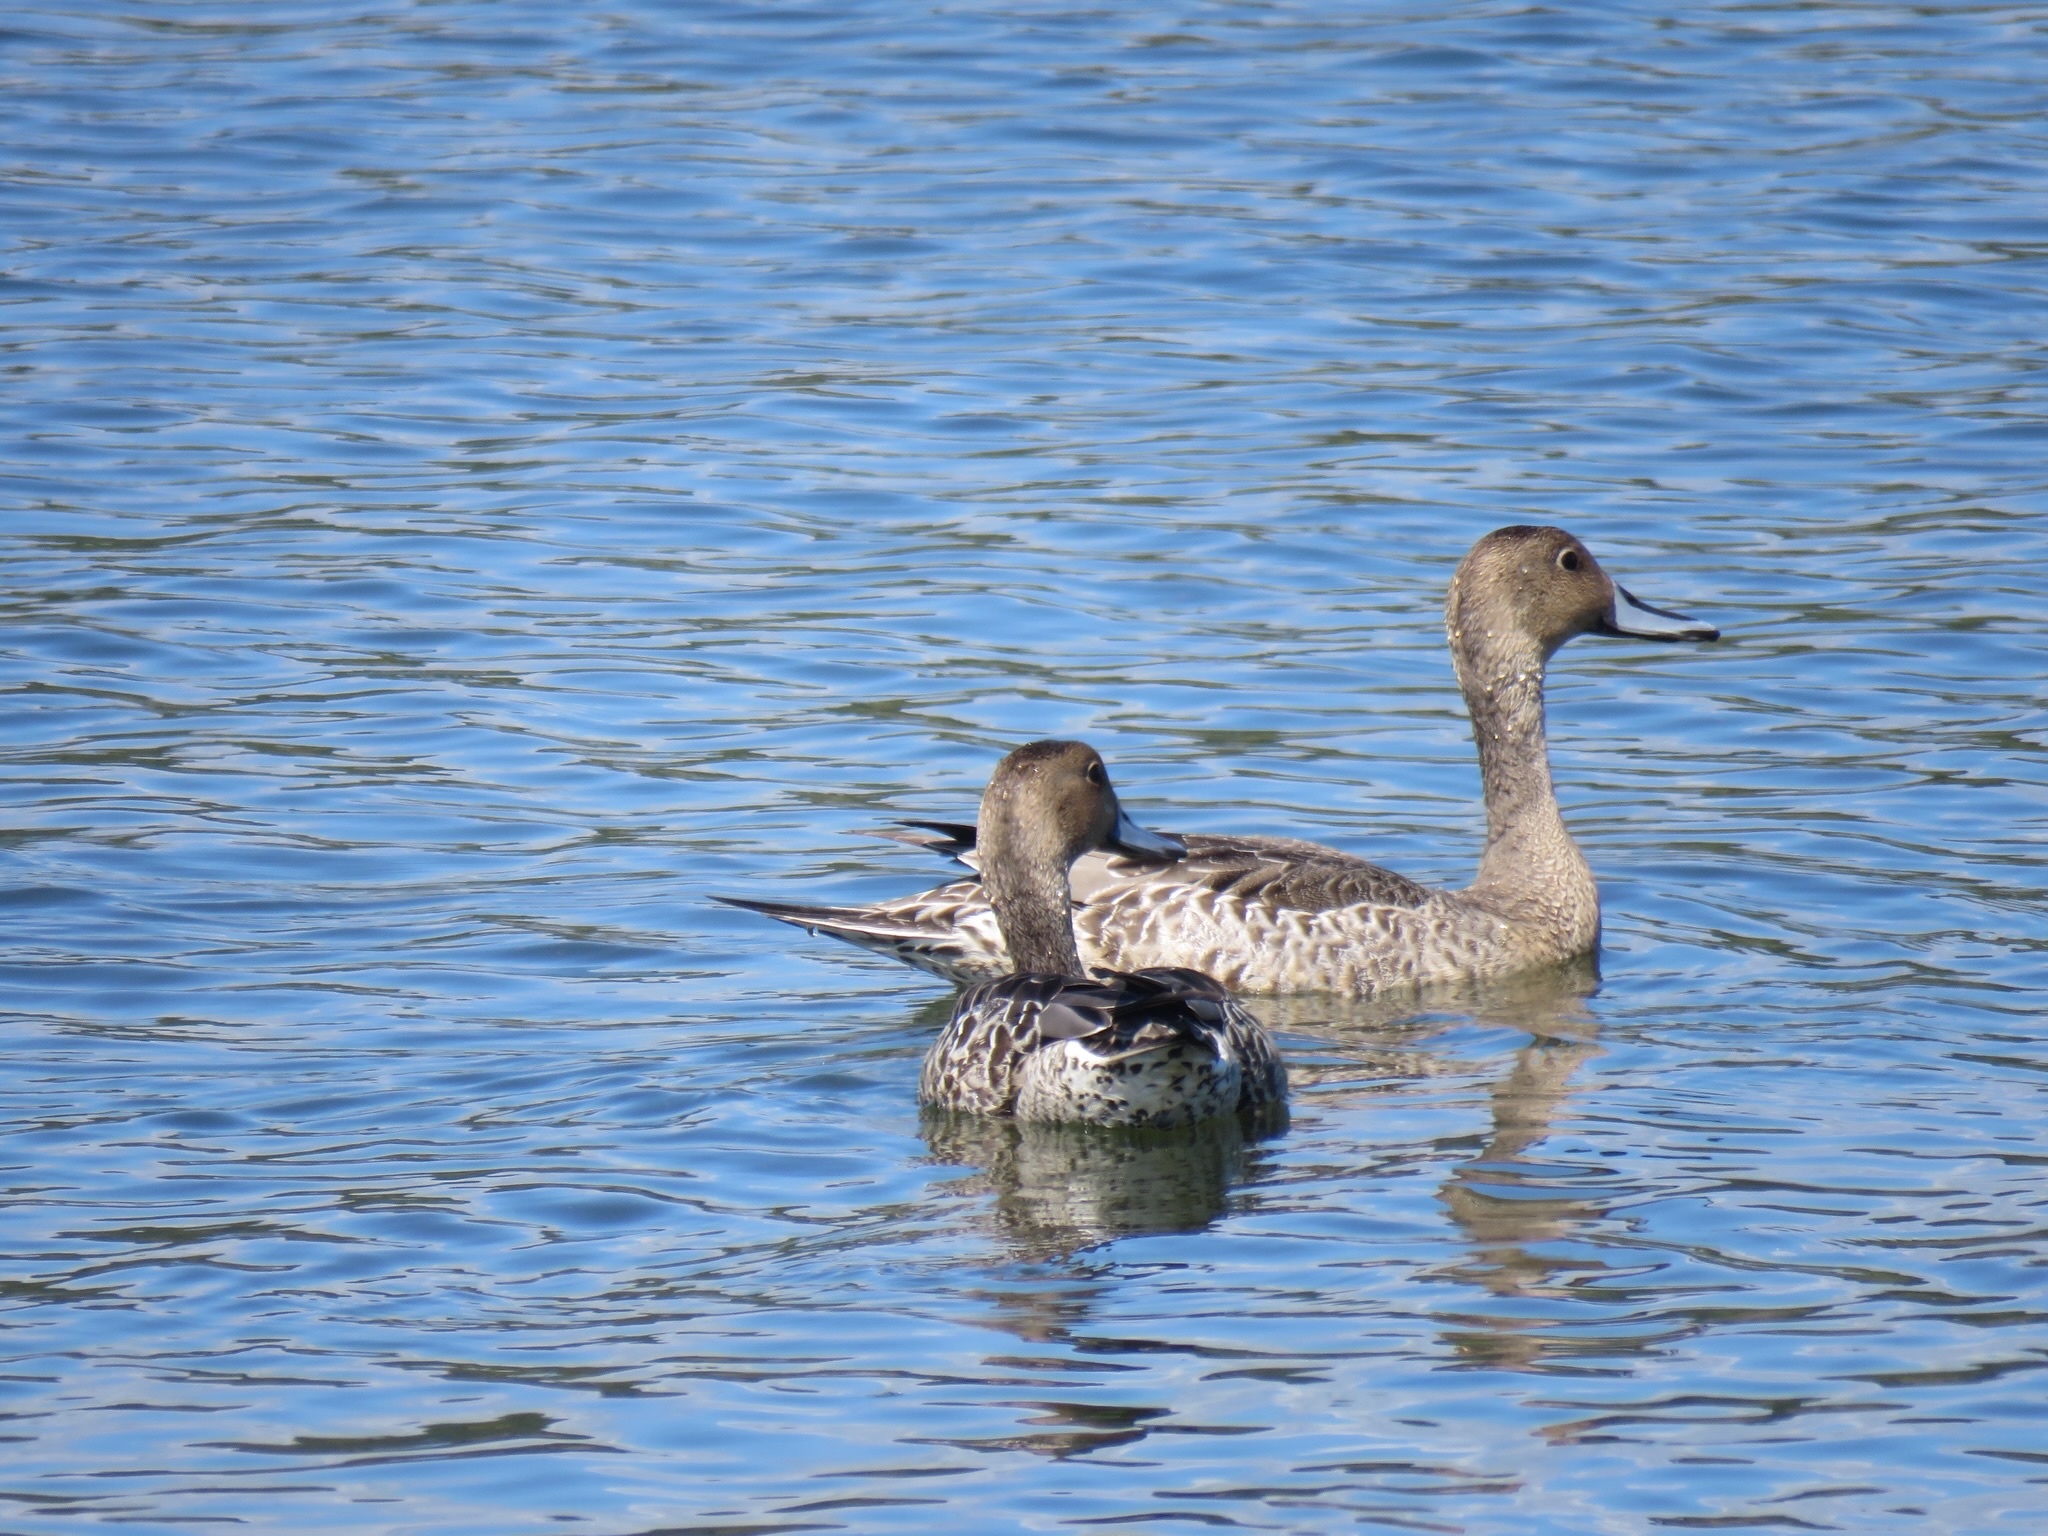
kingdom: Animalia
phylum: Chordata
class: Aves
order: Anseriformes
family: Anatidae
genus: Anas
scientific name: Anas acuta
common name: Northern pintail
